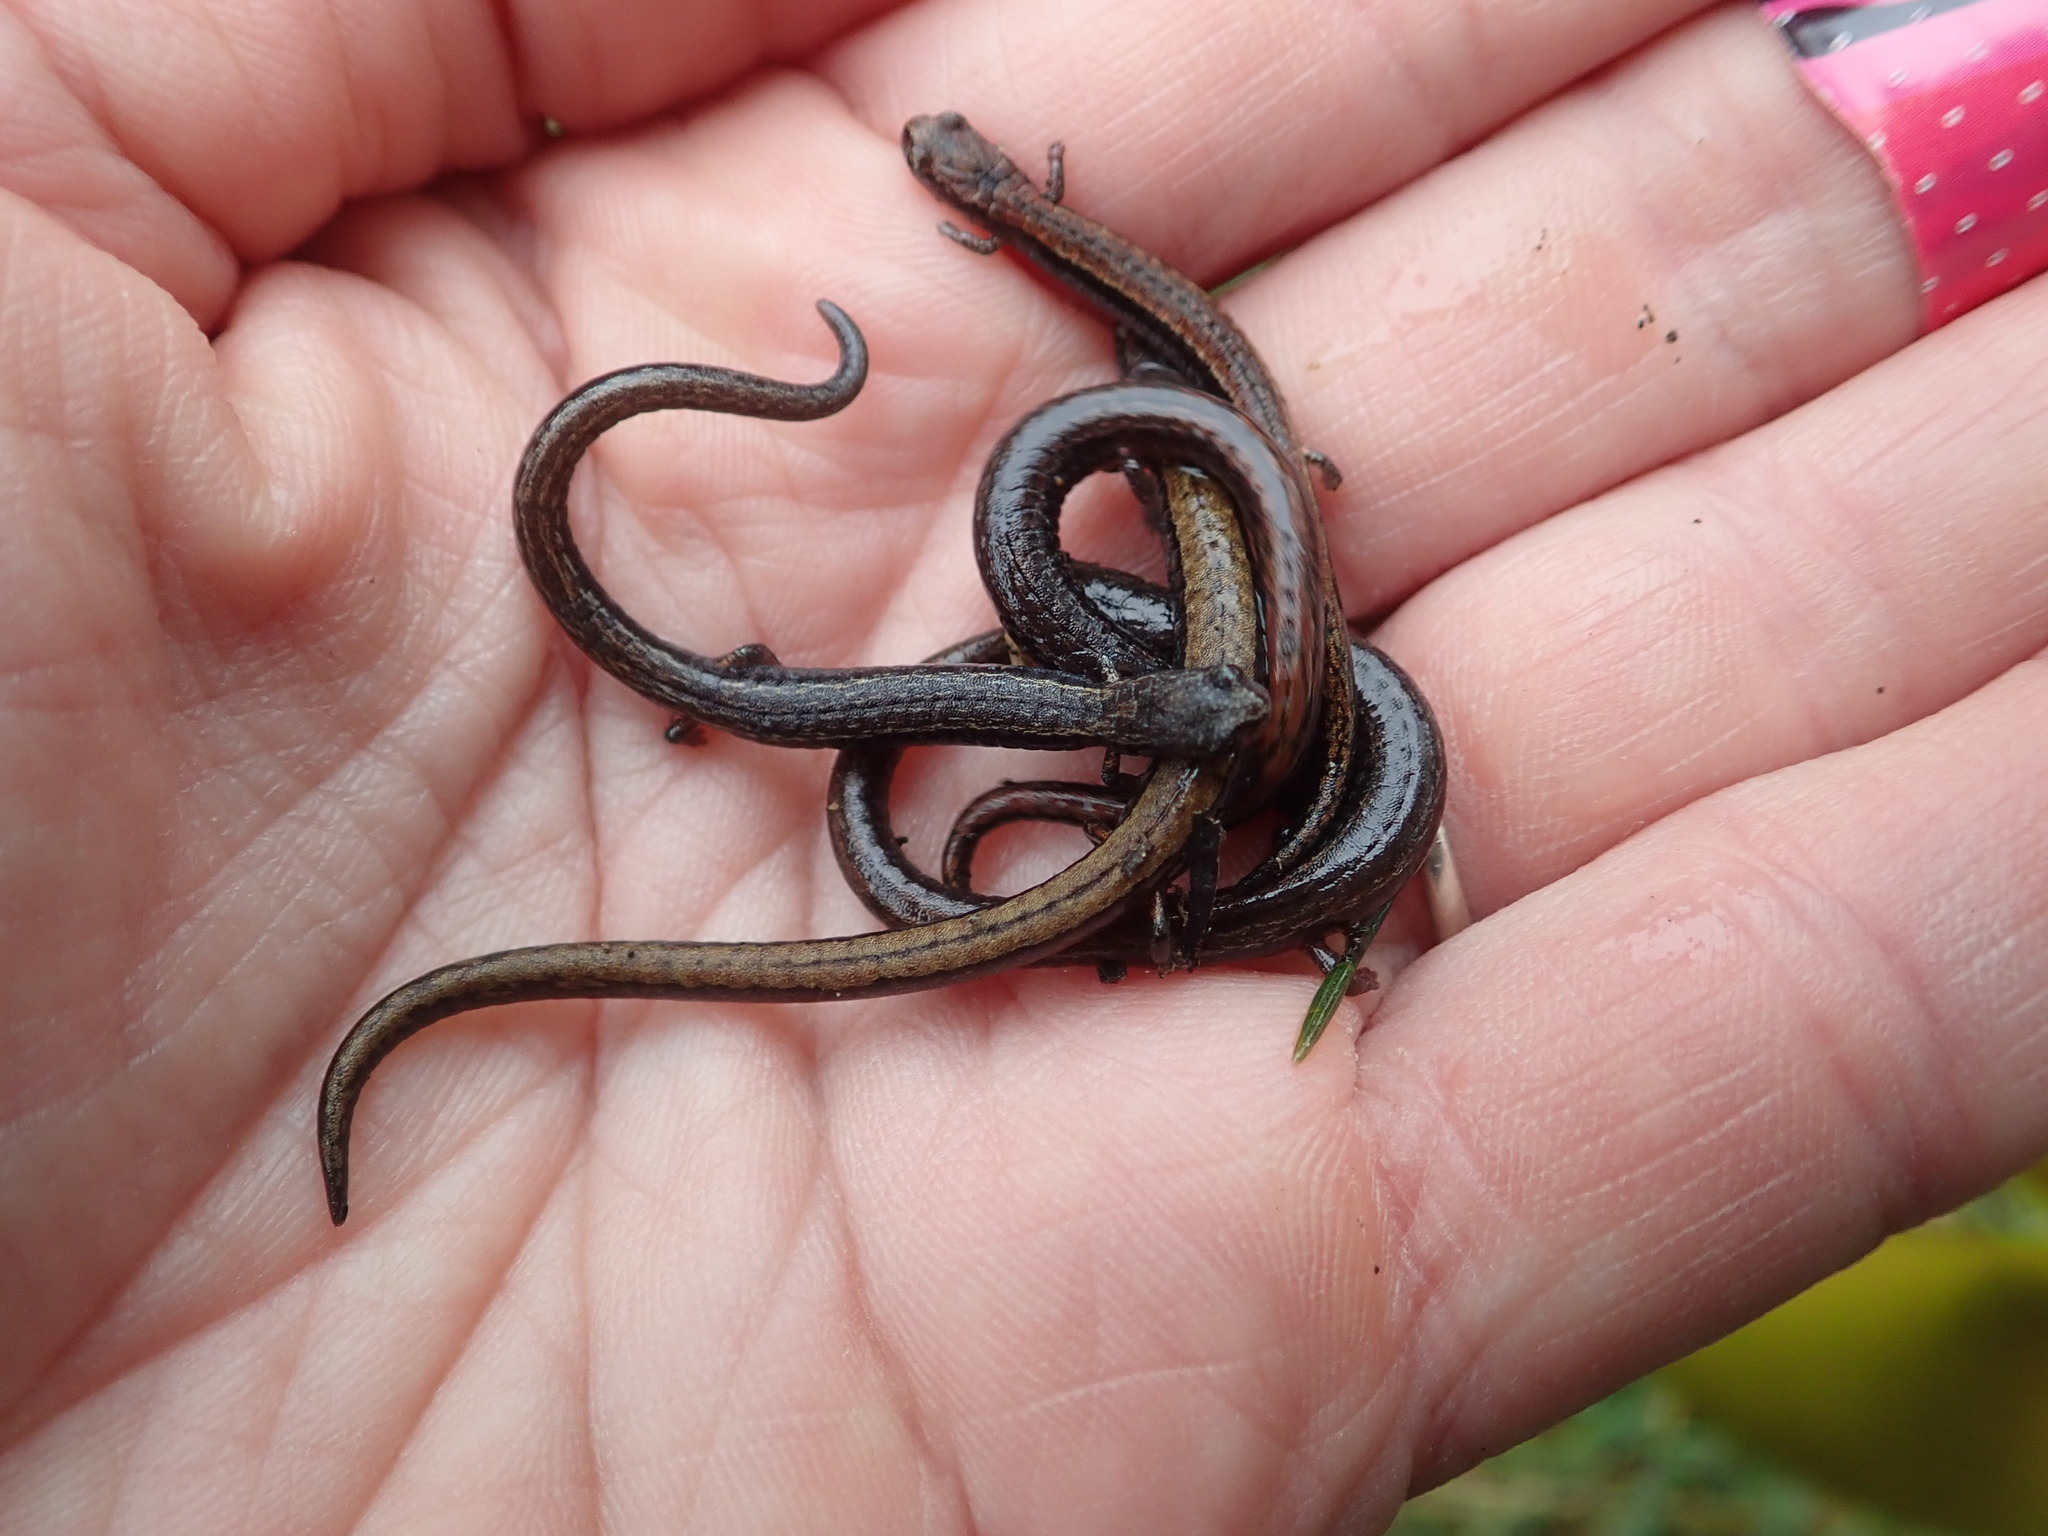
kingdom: Animalia
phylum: Chordata
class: Amphibia
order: Caudata
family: Plethodontidae
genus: Batrachoseps
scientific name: Batrachoseps attenuatus
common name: California slender salamander
